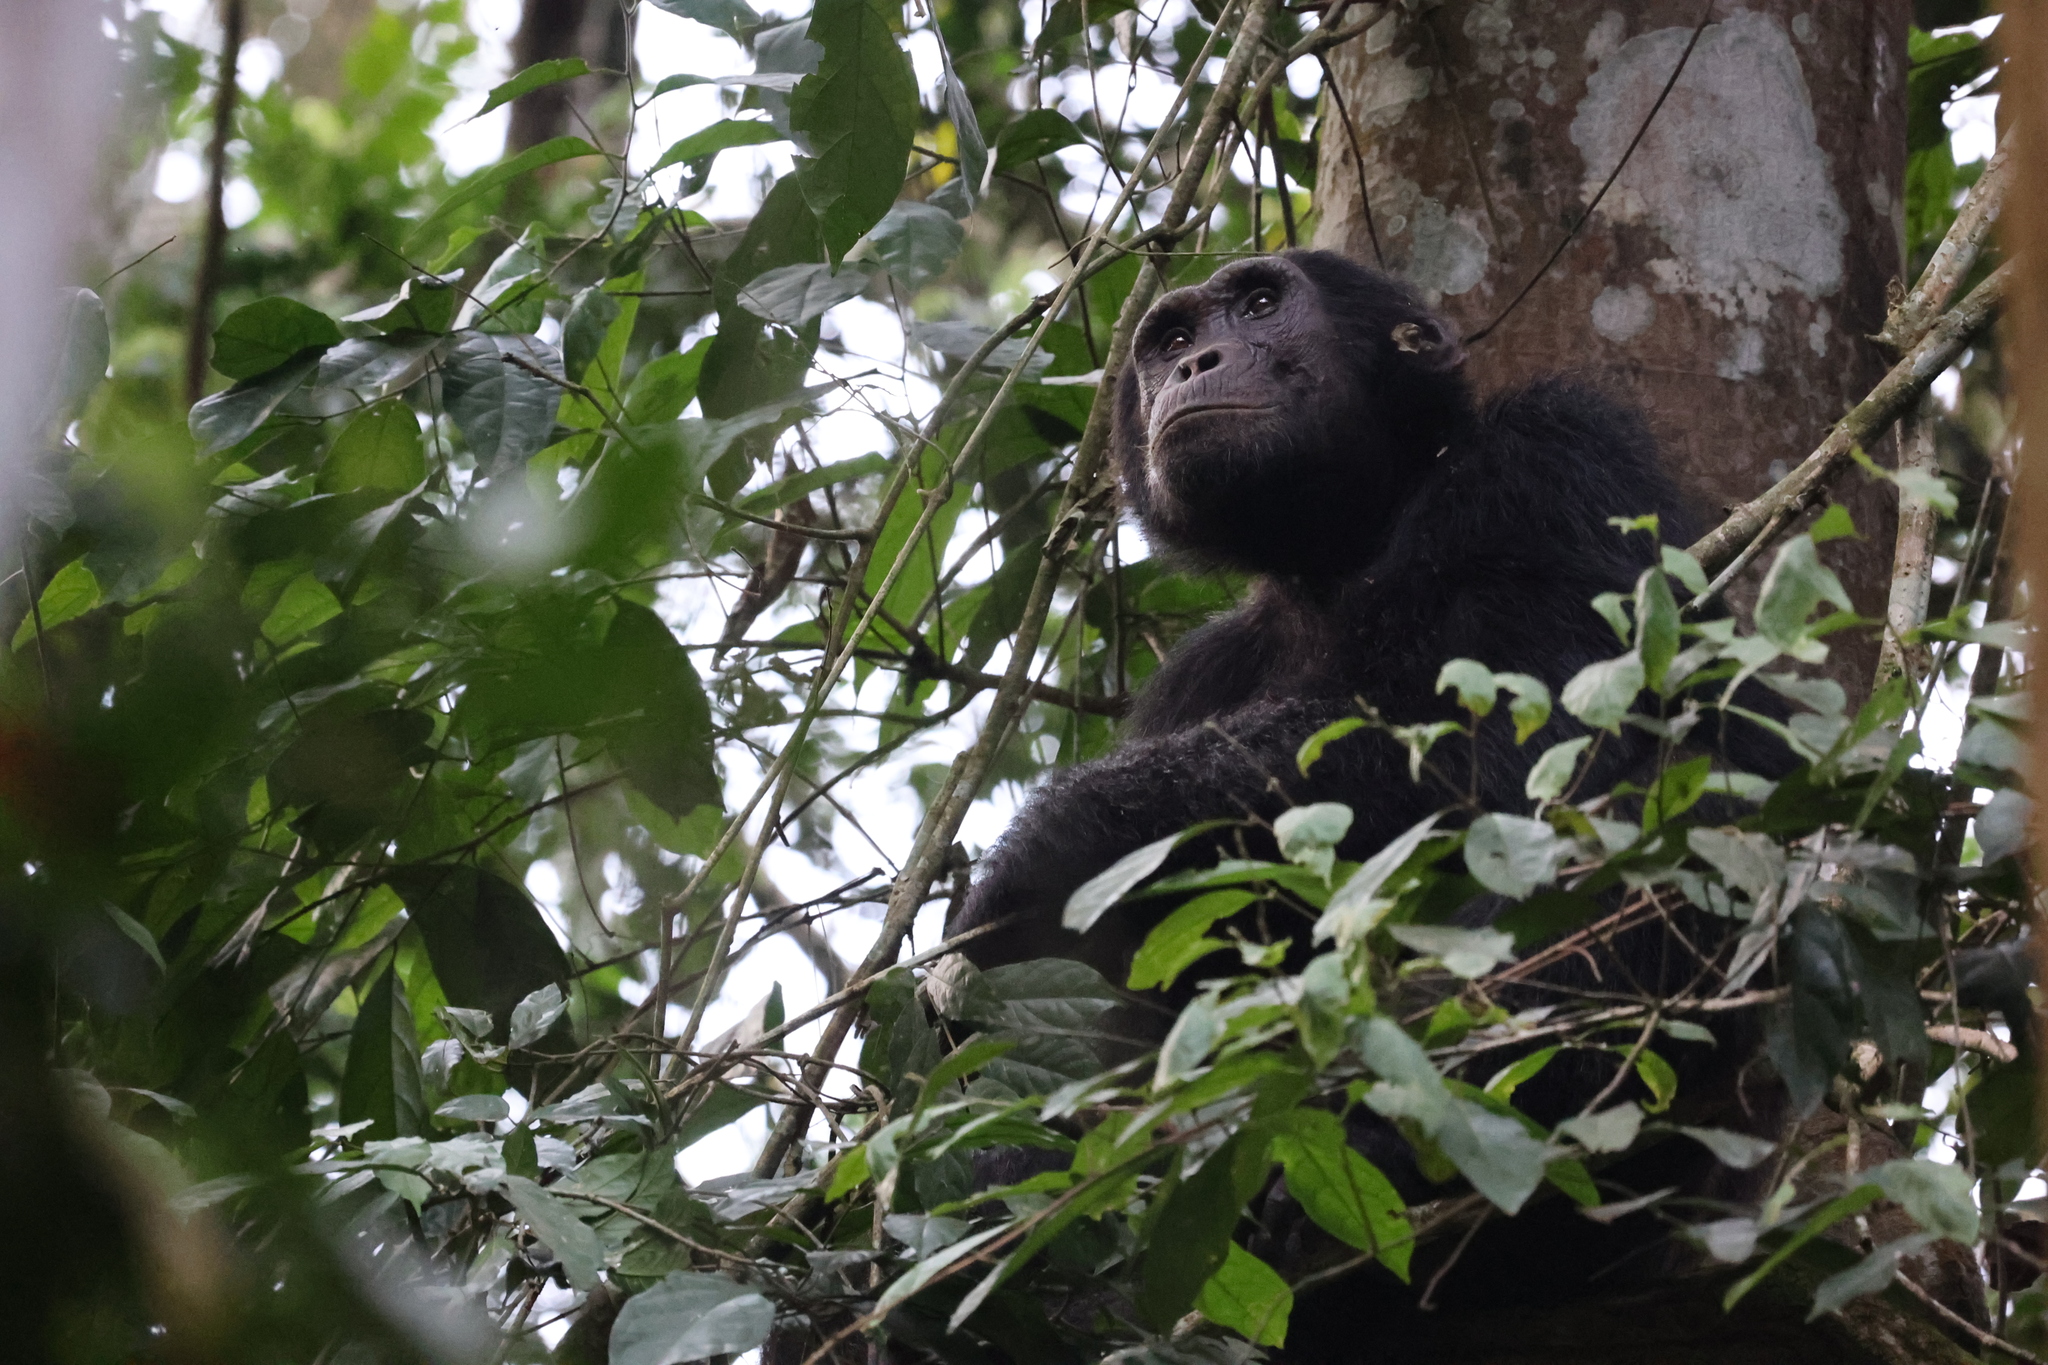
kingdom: Animalia
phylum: Chordata
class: Mammalia
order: Primates
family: Hominidae
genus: Pan
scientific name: Pan troglodytes
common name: Chimpanzee
